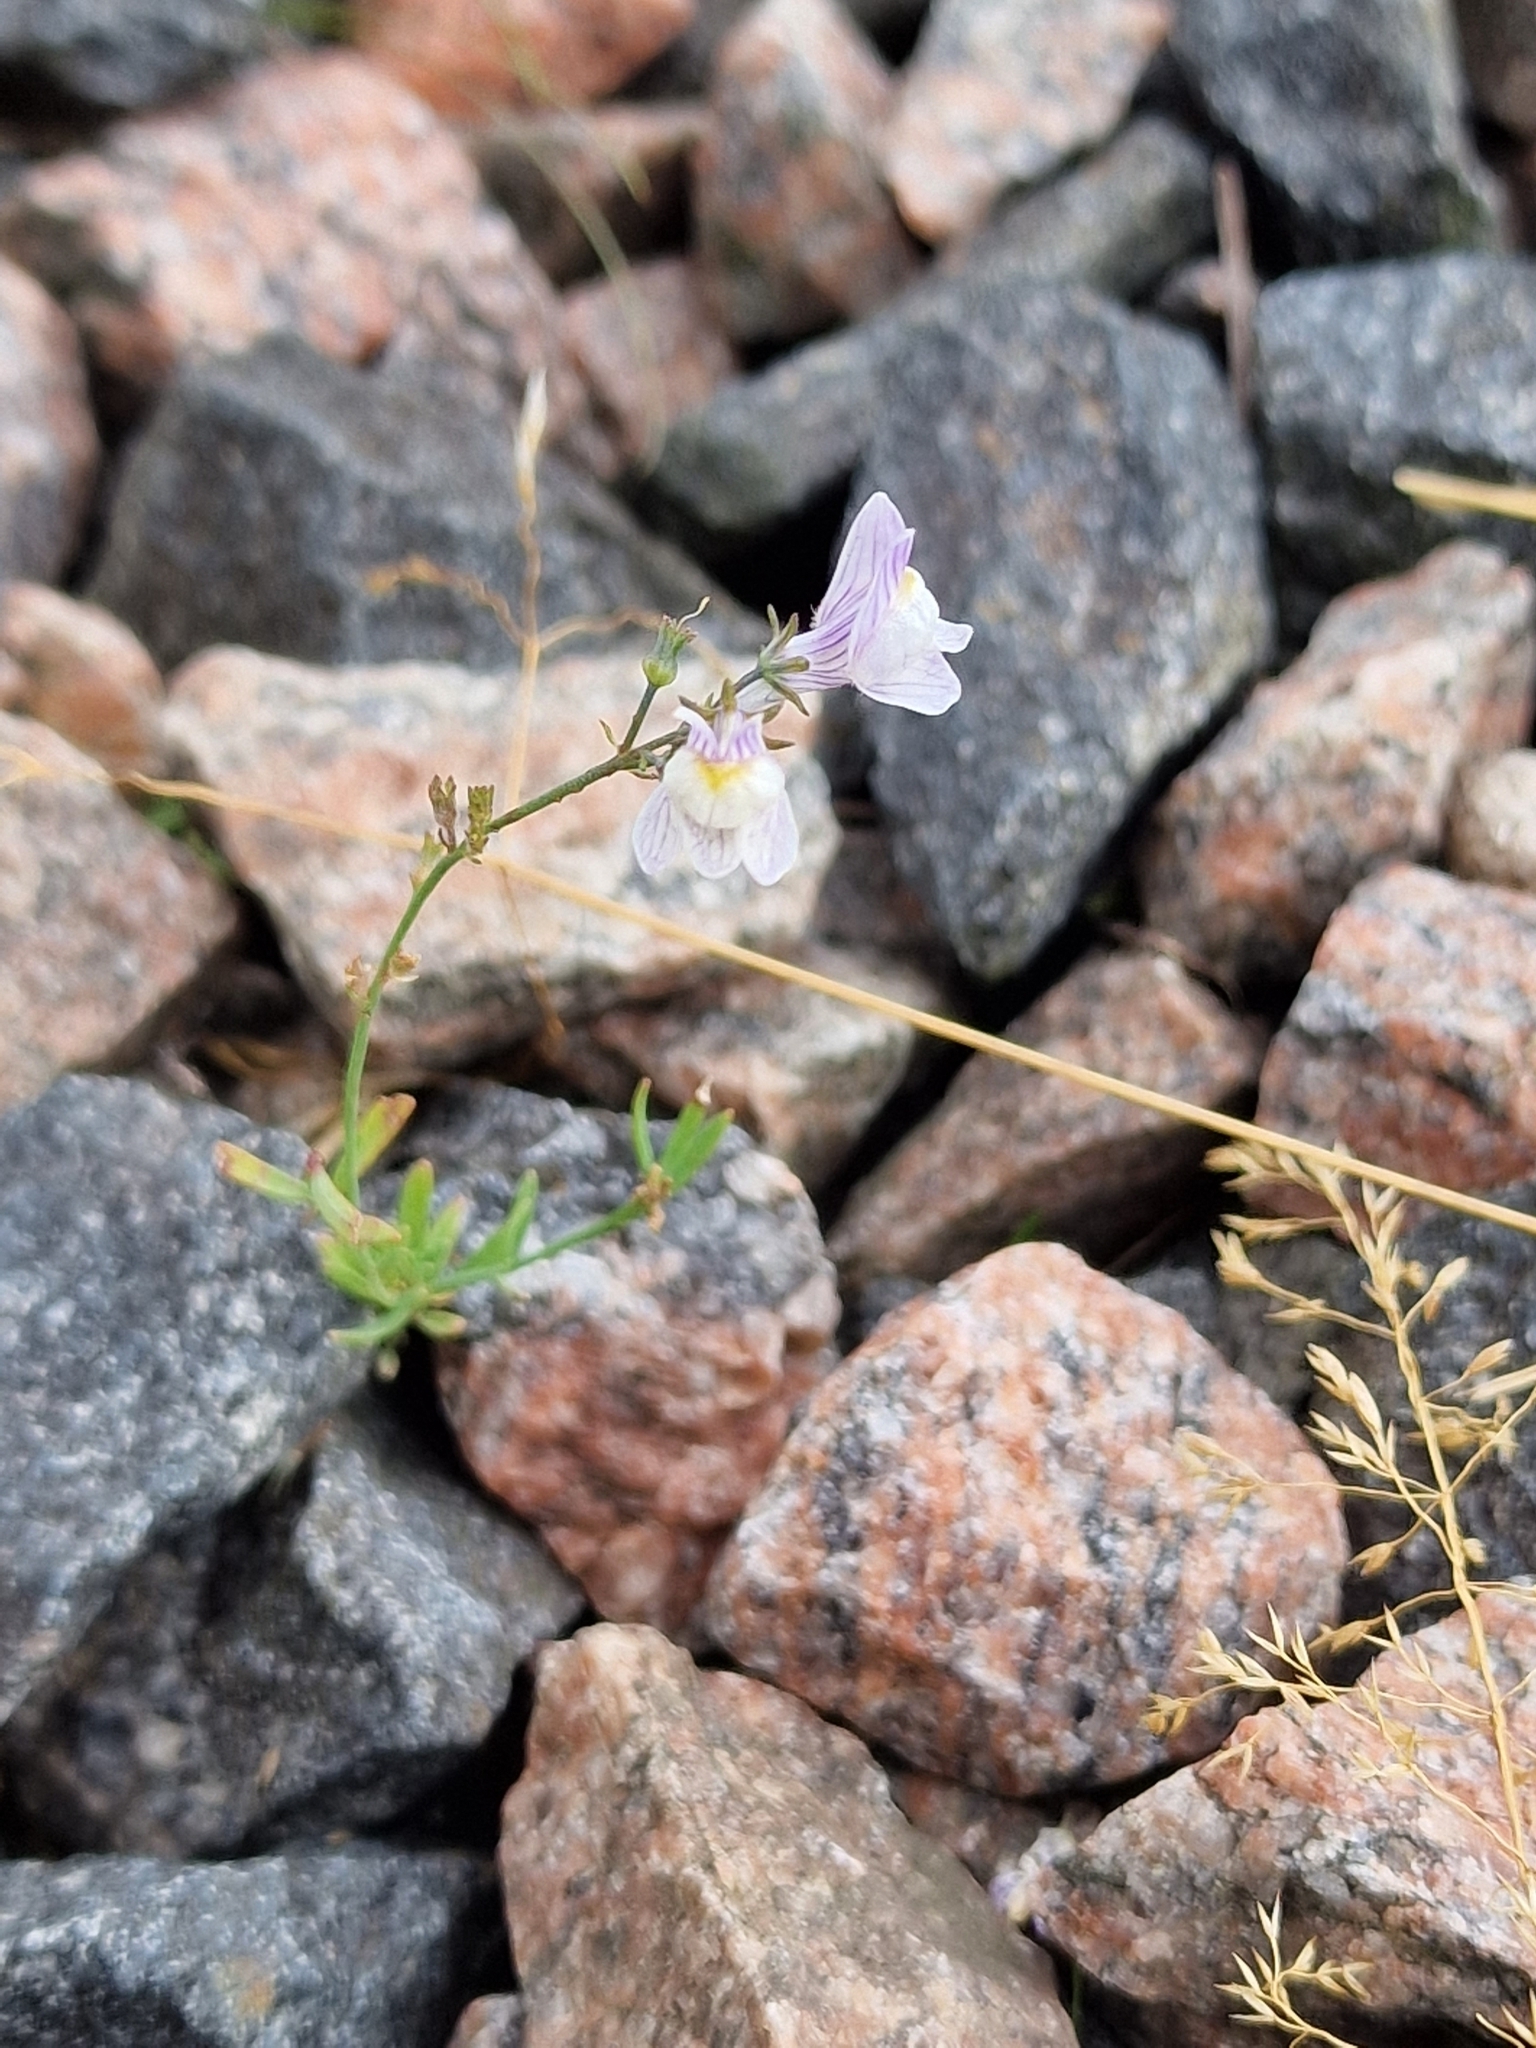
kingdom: Plantae
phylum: Tracheophyta
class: Magnoliopsida
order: Lamiales
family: Plantaginaceae
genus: Linaria
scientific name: Linaria repens
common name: Pale toadflax
